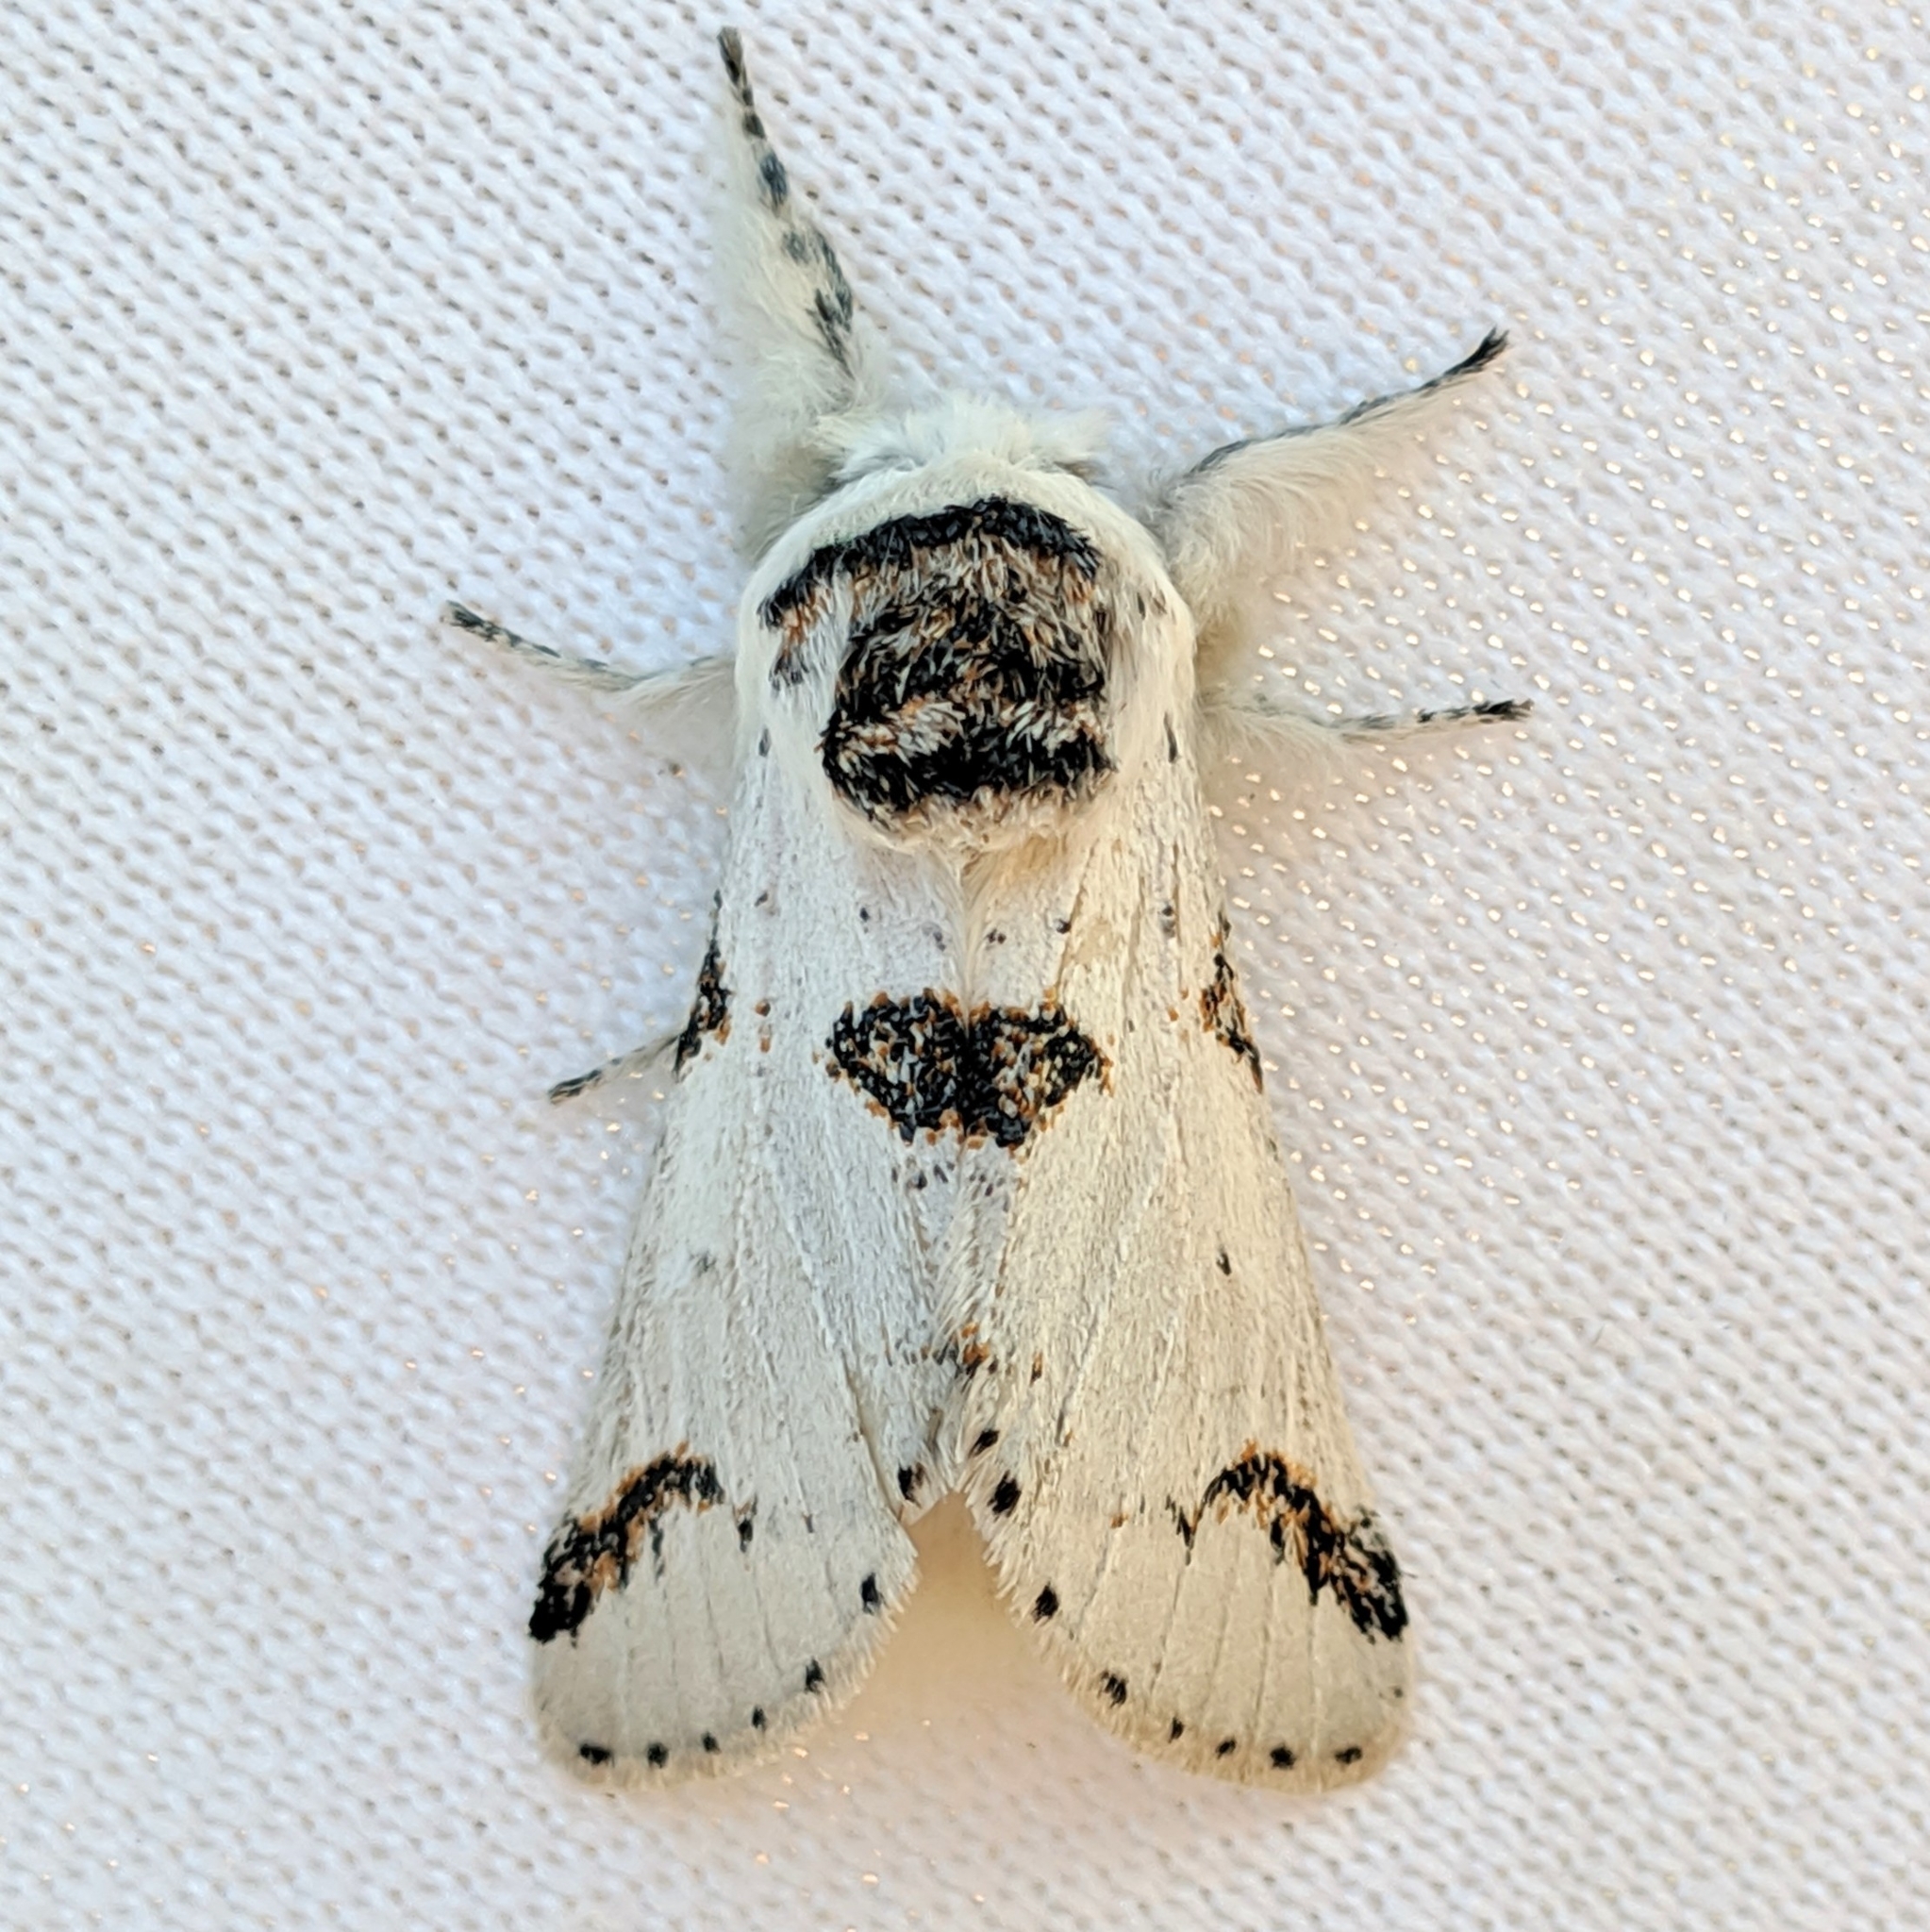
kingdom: Animalia
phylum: Arthropoda
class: Insecta
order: Lepidoptera
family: Notodontidae
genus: Furcula
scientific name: Furcula scolopendrina
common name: Zigzag furcula moth
